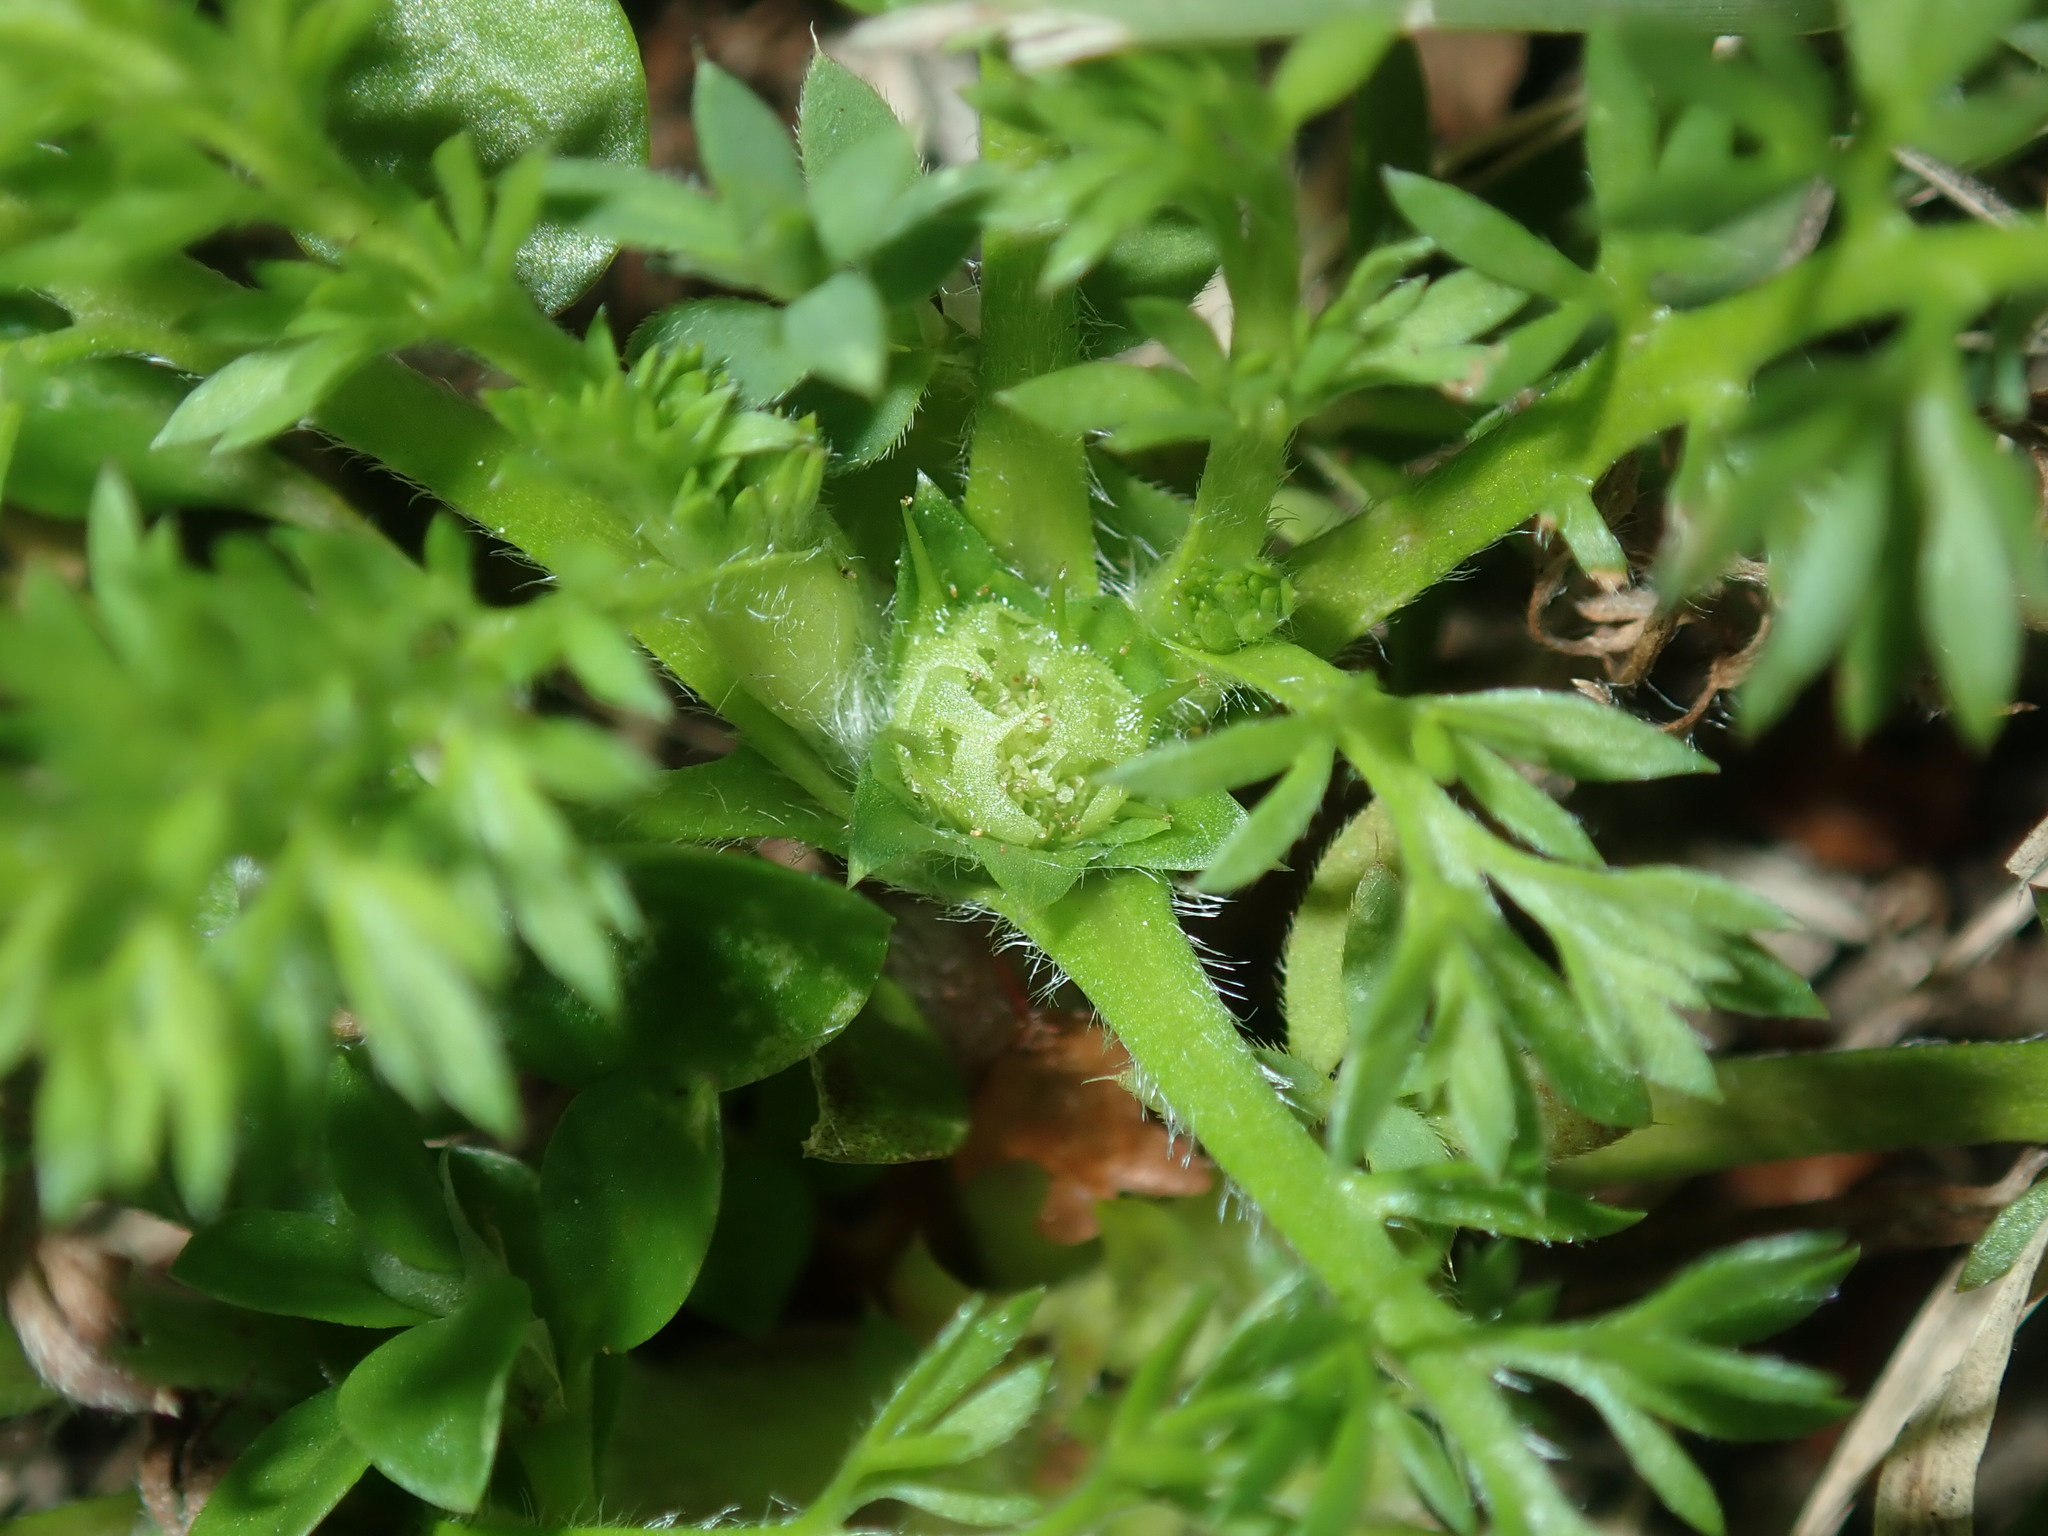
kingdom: Plantae
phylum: Tracheophyta
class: Magnoliopsida
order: Asterales
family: Asteraceae
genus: Soliva
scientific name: Soliva sessilis
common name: Field burrweed
